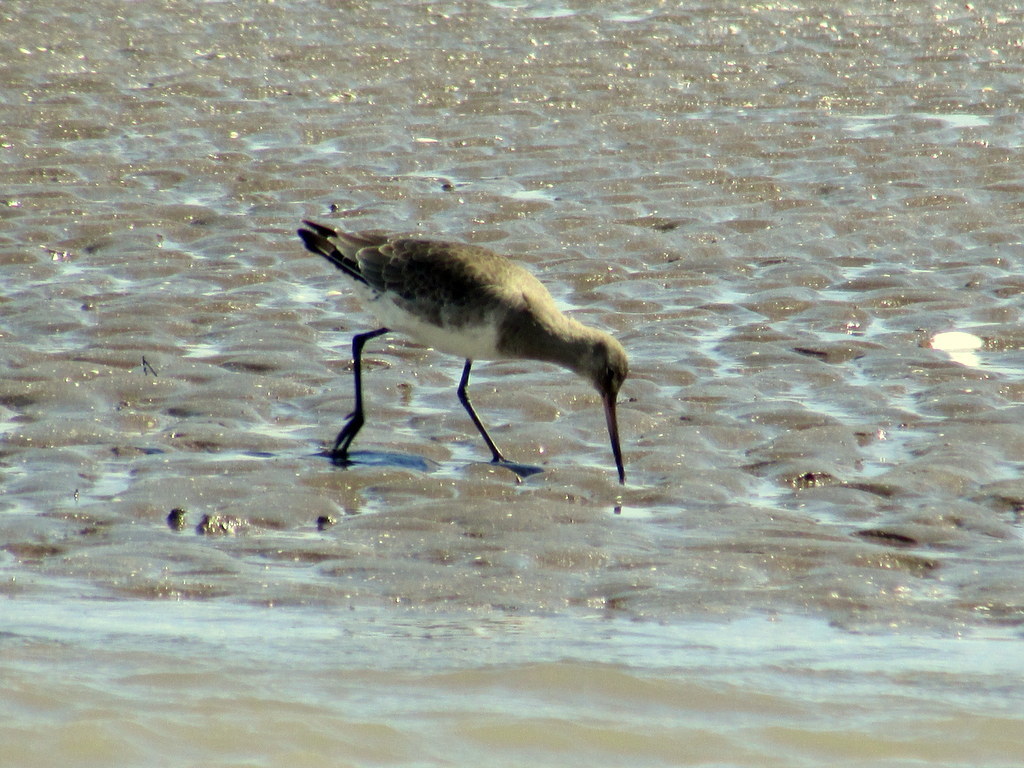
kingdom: Animalia
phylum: Chordata
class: Aves
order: Charadriiformes
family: Scolopacidae
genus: Limosa
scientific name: Limosa haemastica
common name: Hudsonian godwit
